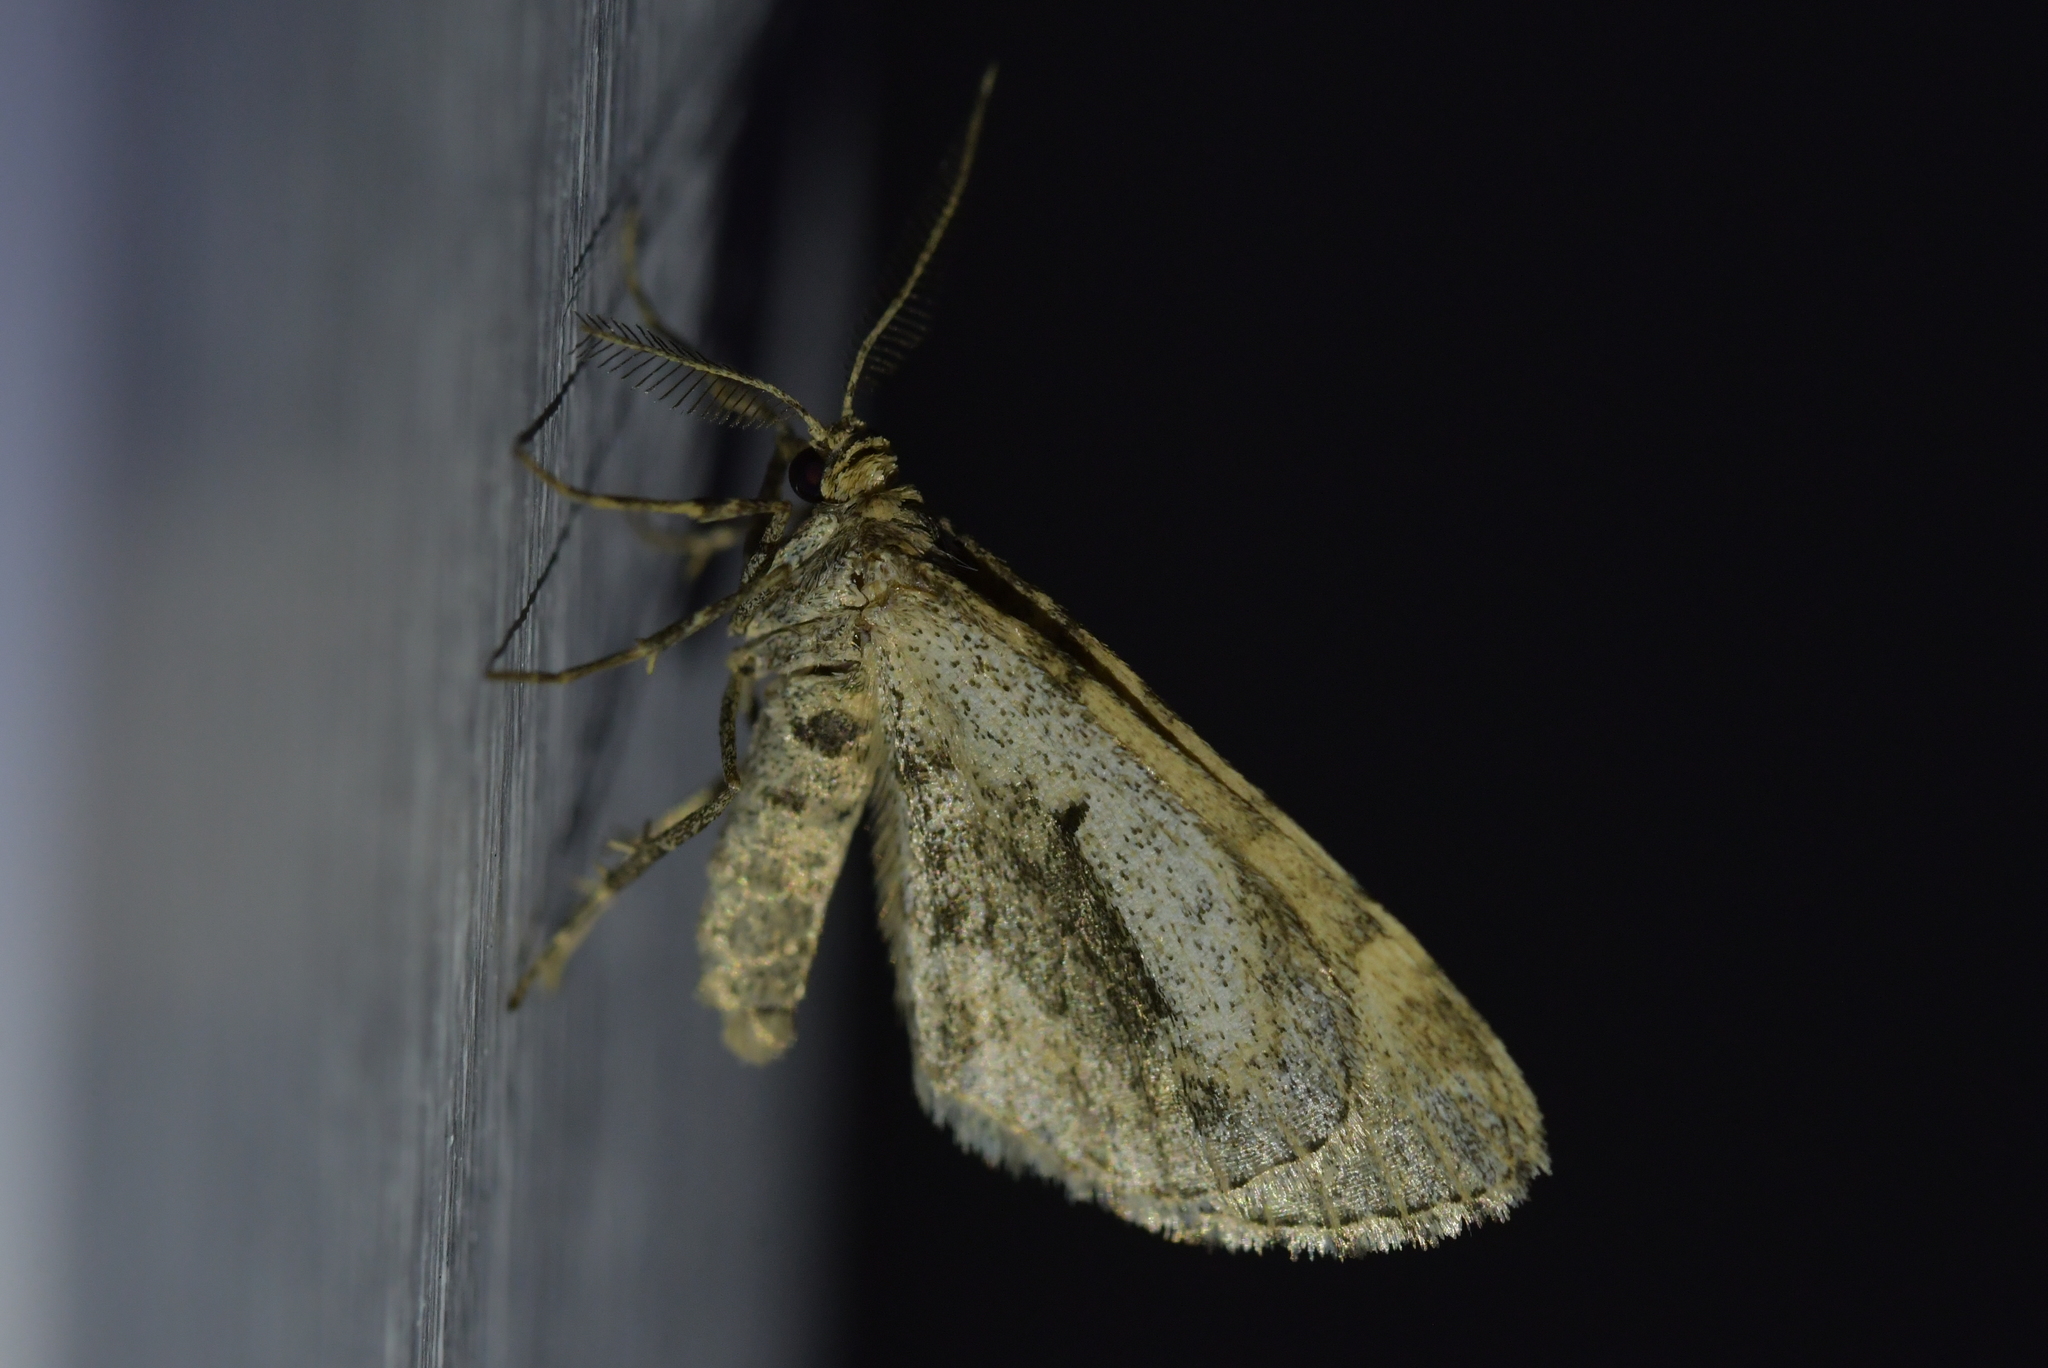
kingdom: Animalia
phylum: Arthropoda
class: Insecta
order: Lepidoptera
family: Geometridae
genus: Asaphodes
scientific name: Asaphodes aegrota
